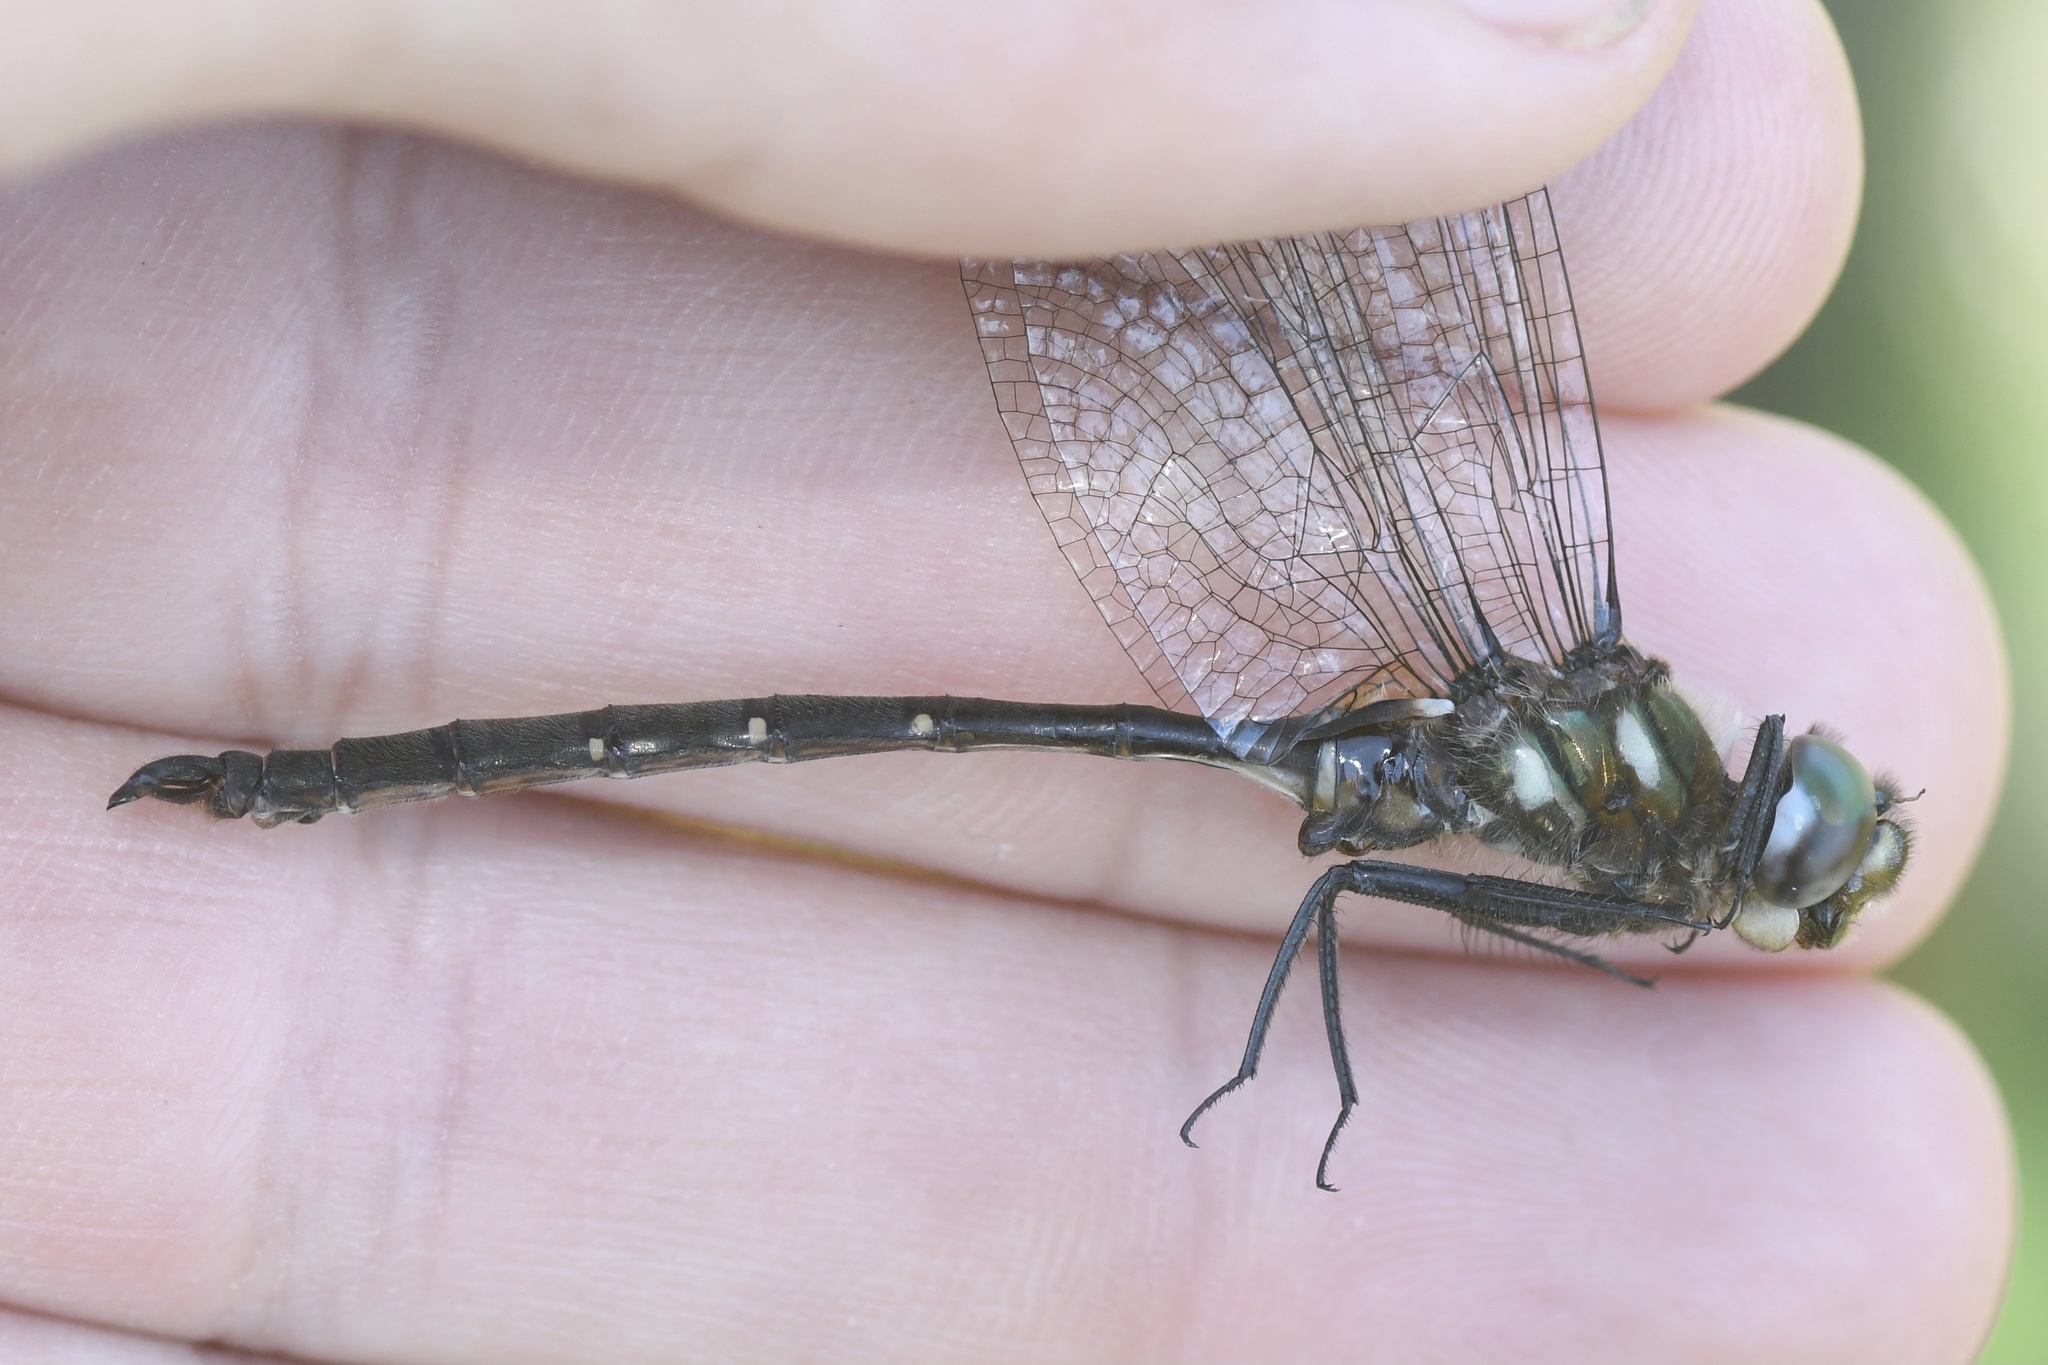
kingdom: Animalia
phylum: Arthropoda
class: Insecta
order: Odonata
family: Corduliidae
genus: Somatochlora
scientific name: Somatochlora forcipata
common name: Forcipate emerald
